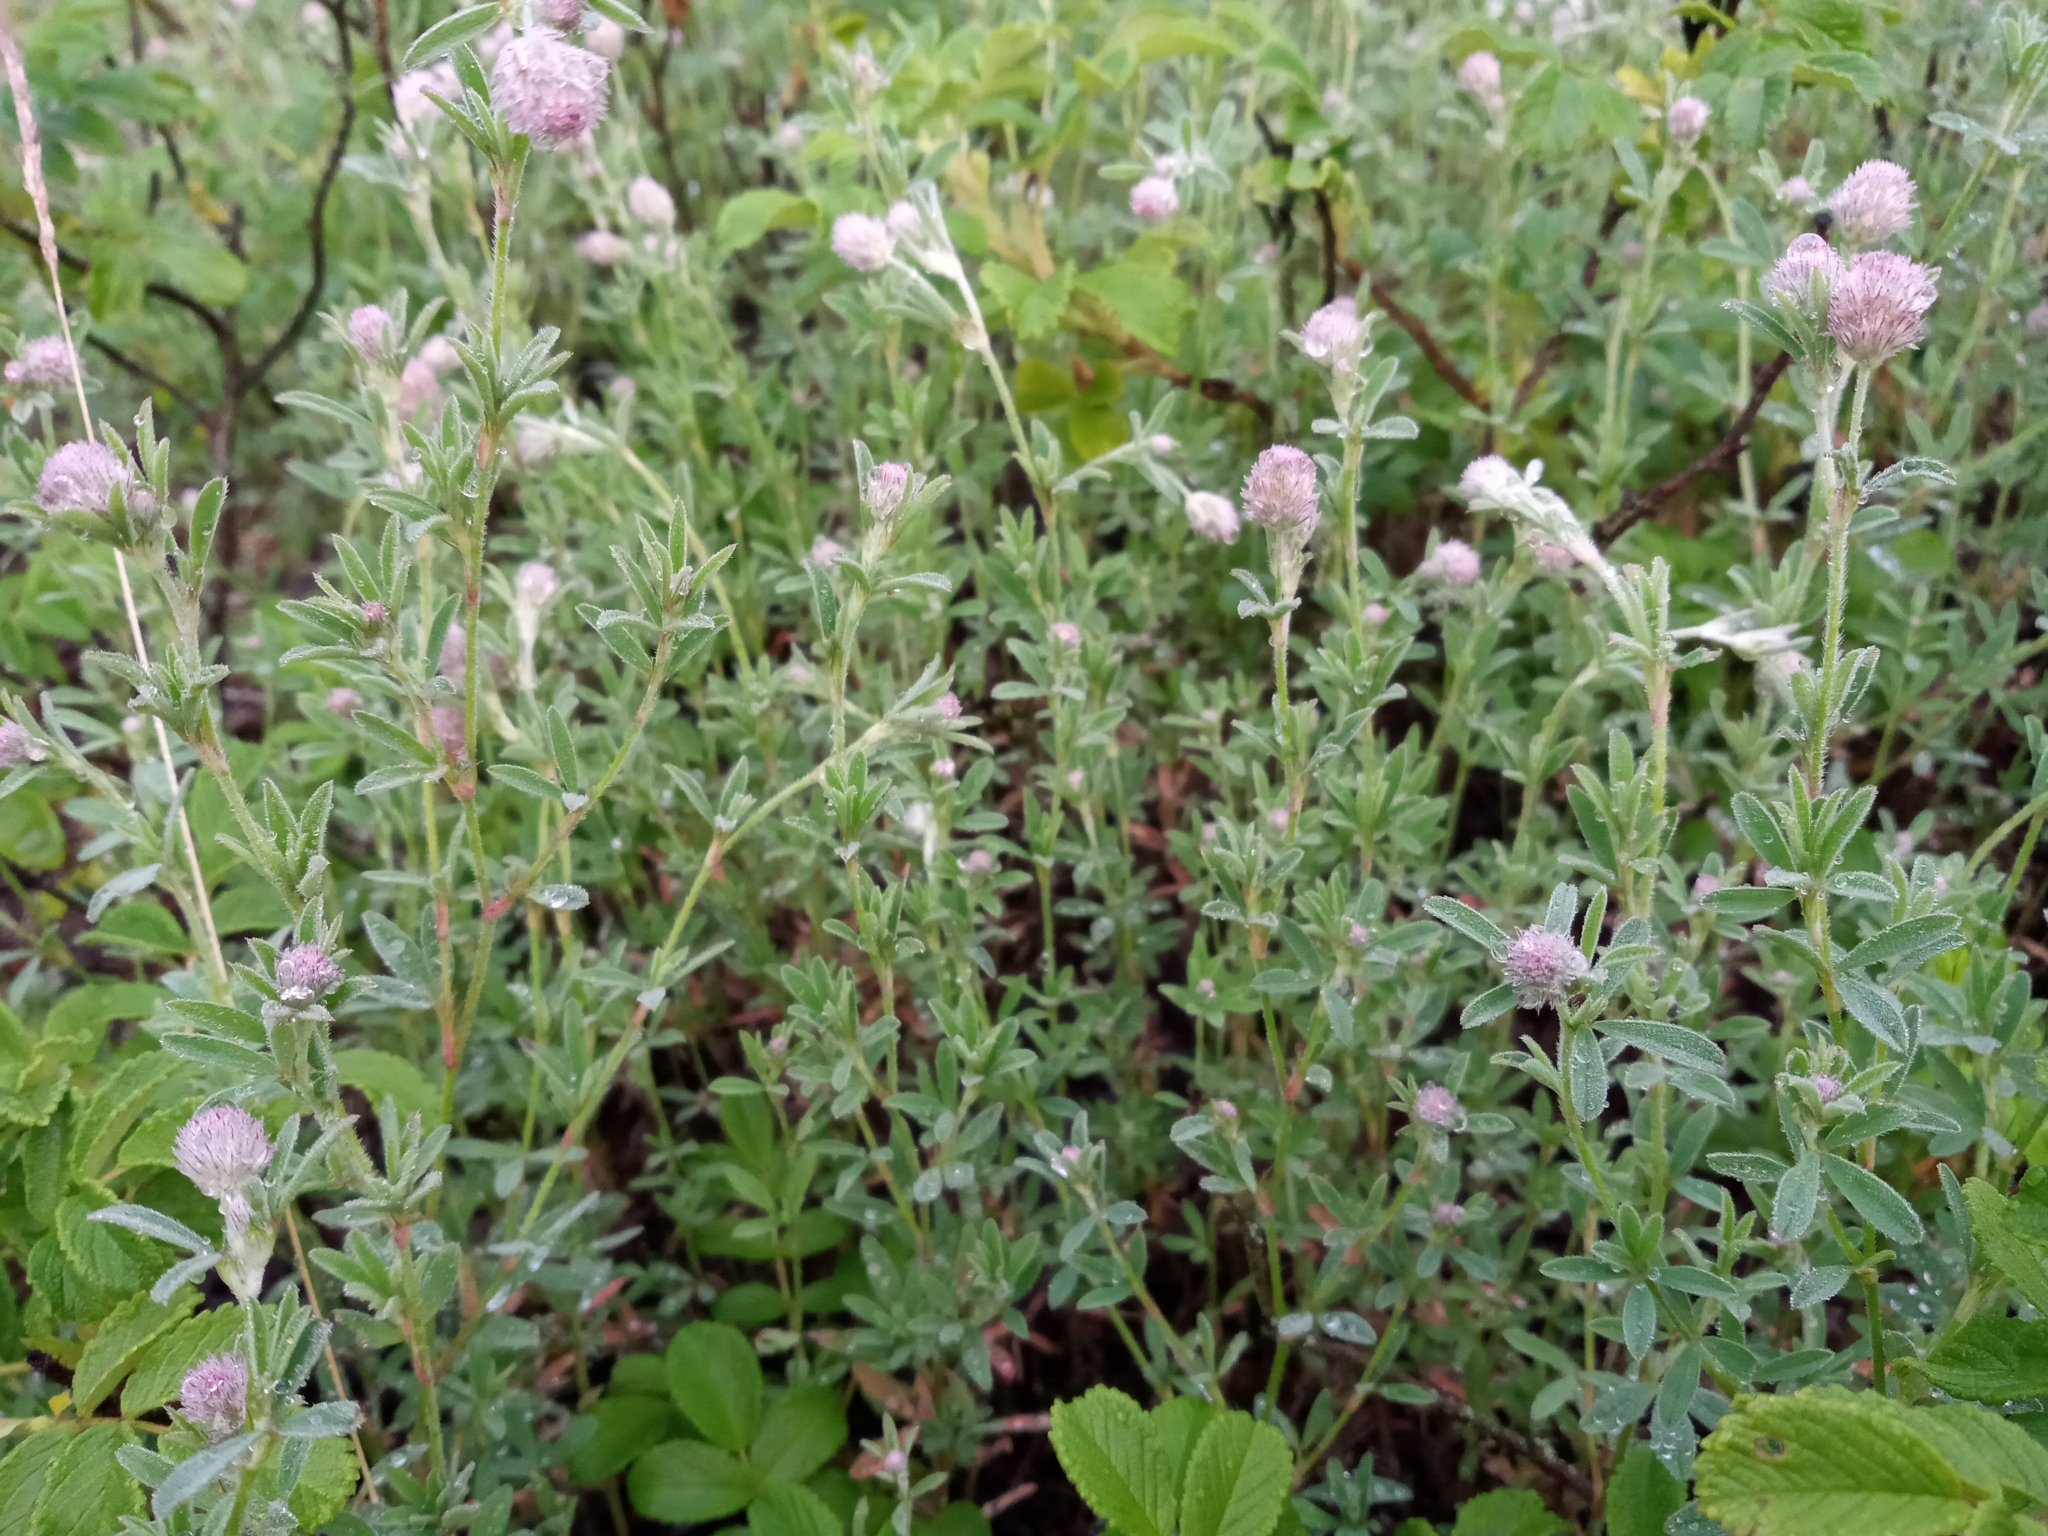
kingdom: Plantae
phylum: Tracheophyta
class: Magnoliopsida
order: Fabales
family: Fabaceae
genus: Trifolium
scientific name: Trifolium arvense
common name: Hare's-foot clover
